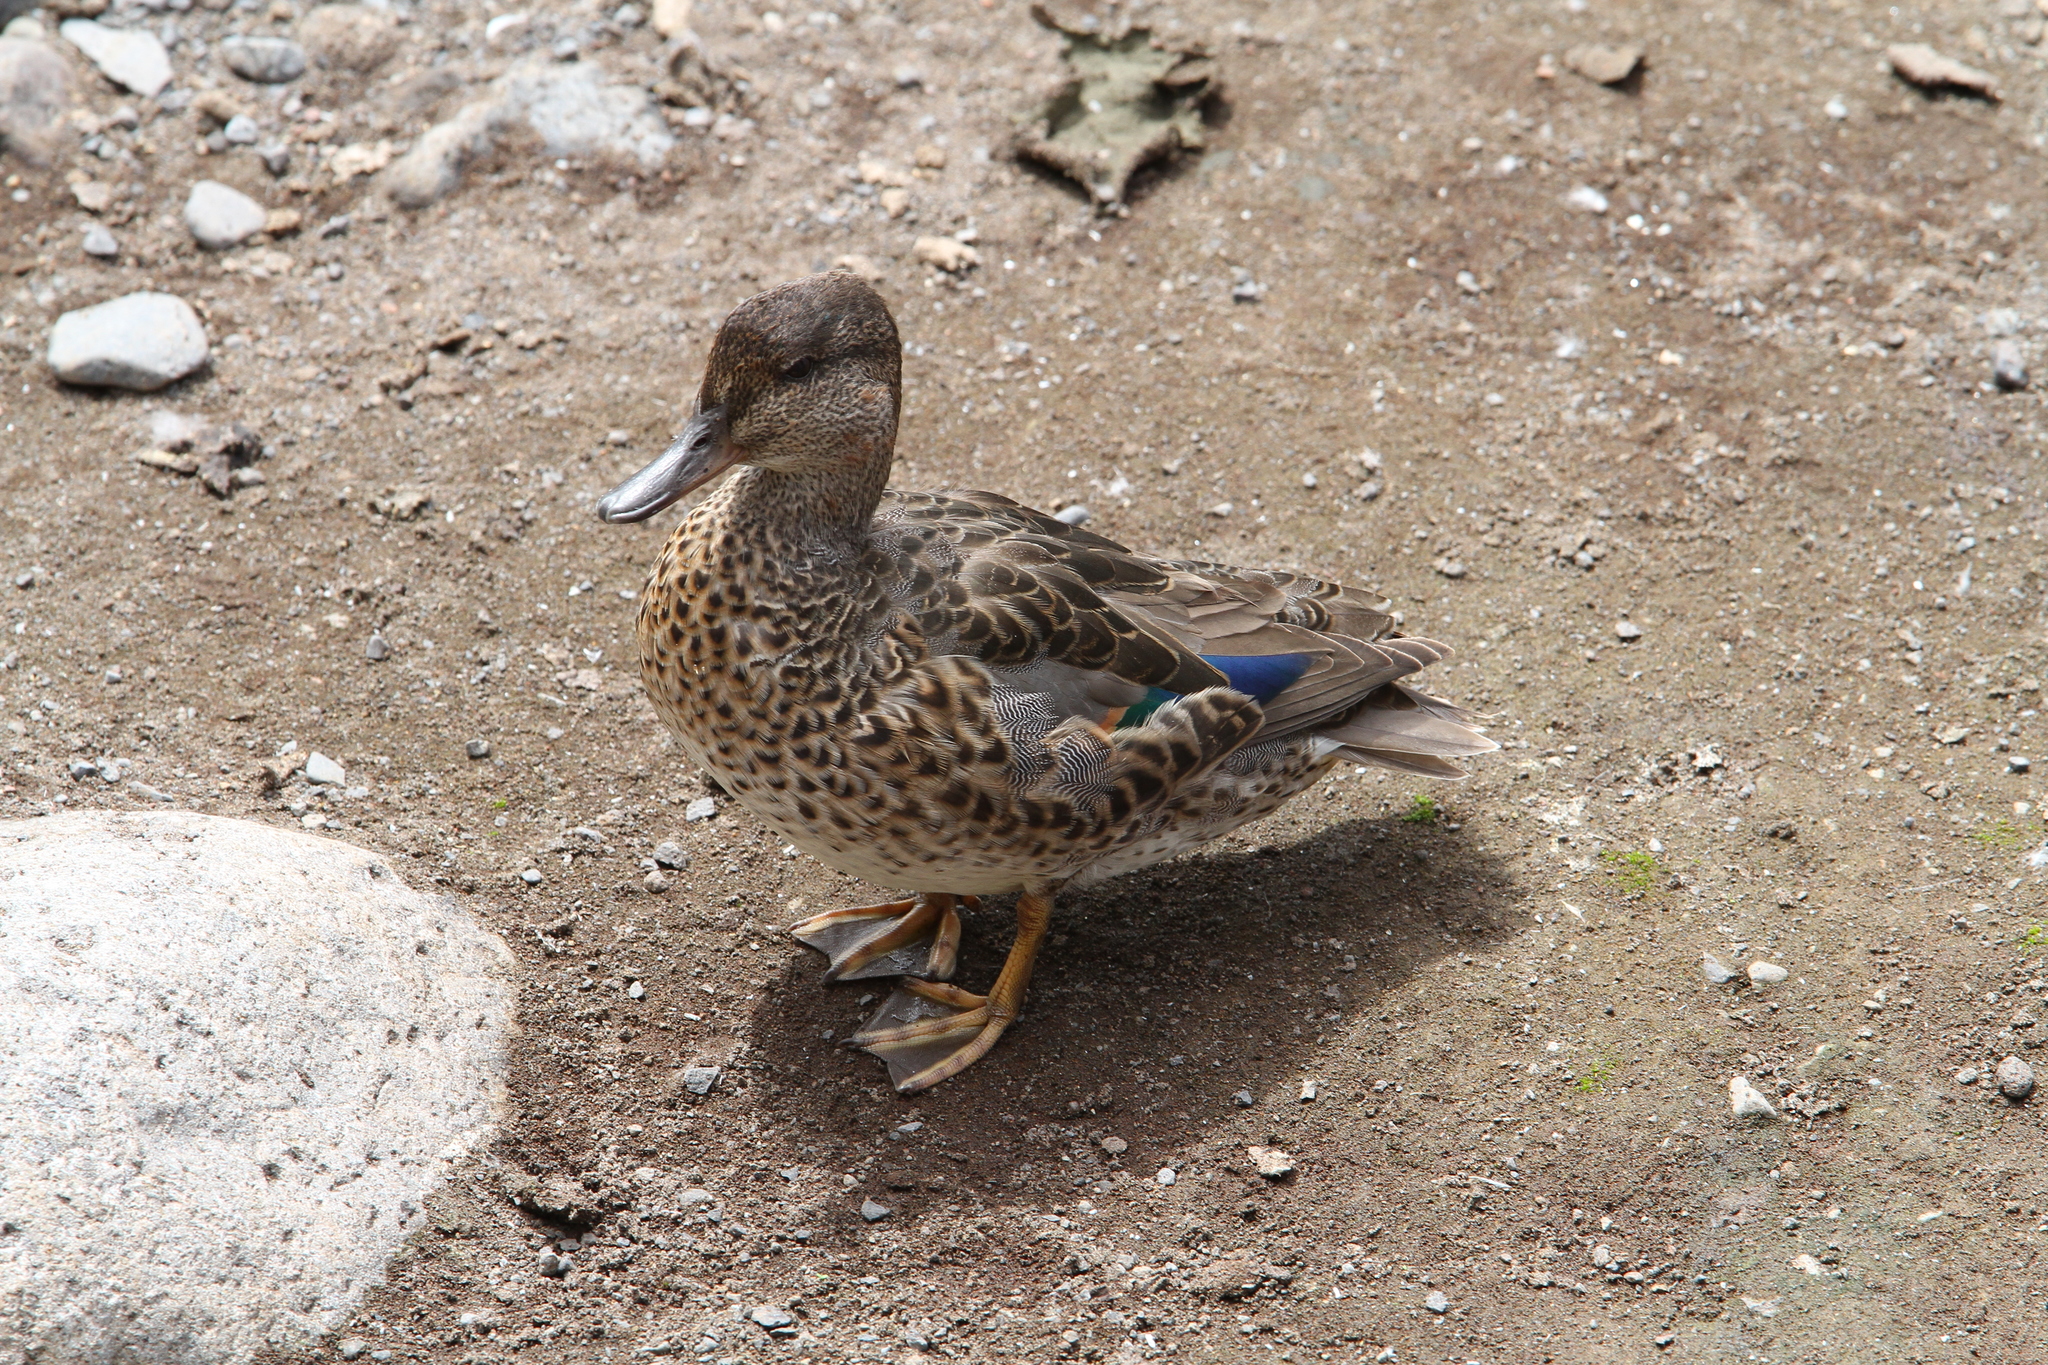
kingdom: Animalia
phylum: Chordata
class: Aves
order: Anseriformes
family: Anatidae
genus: Anas
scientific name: Anas carolinensis
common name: Green-winged teal
